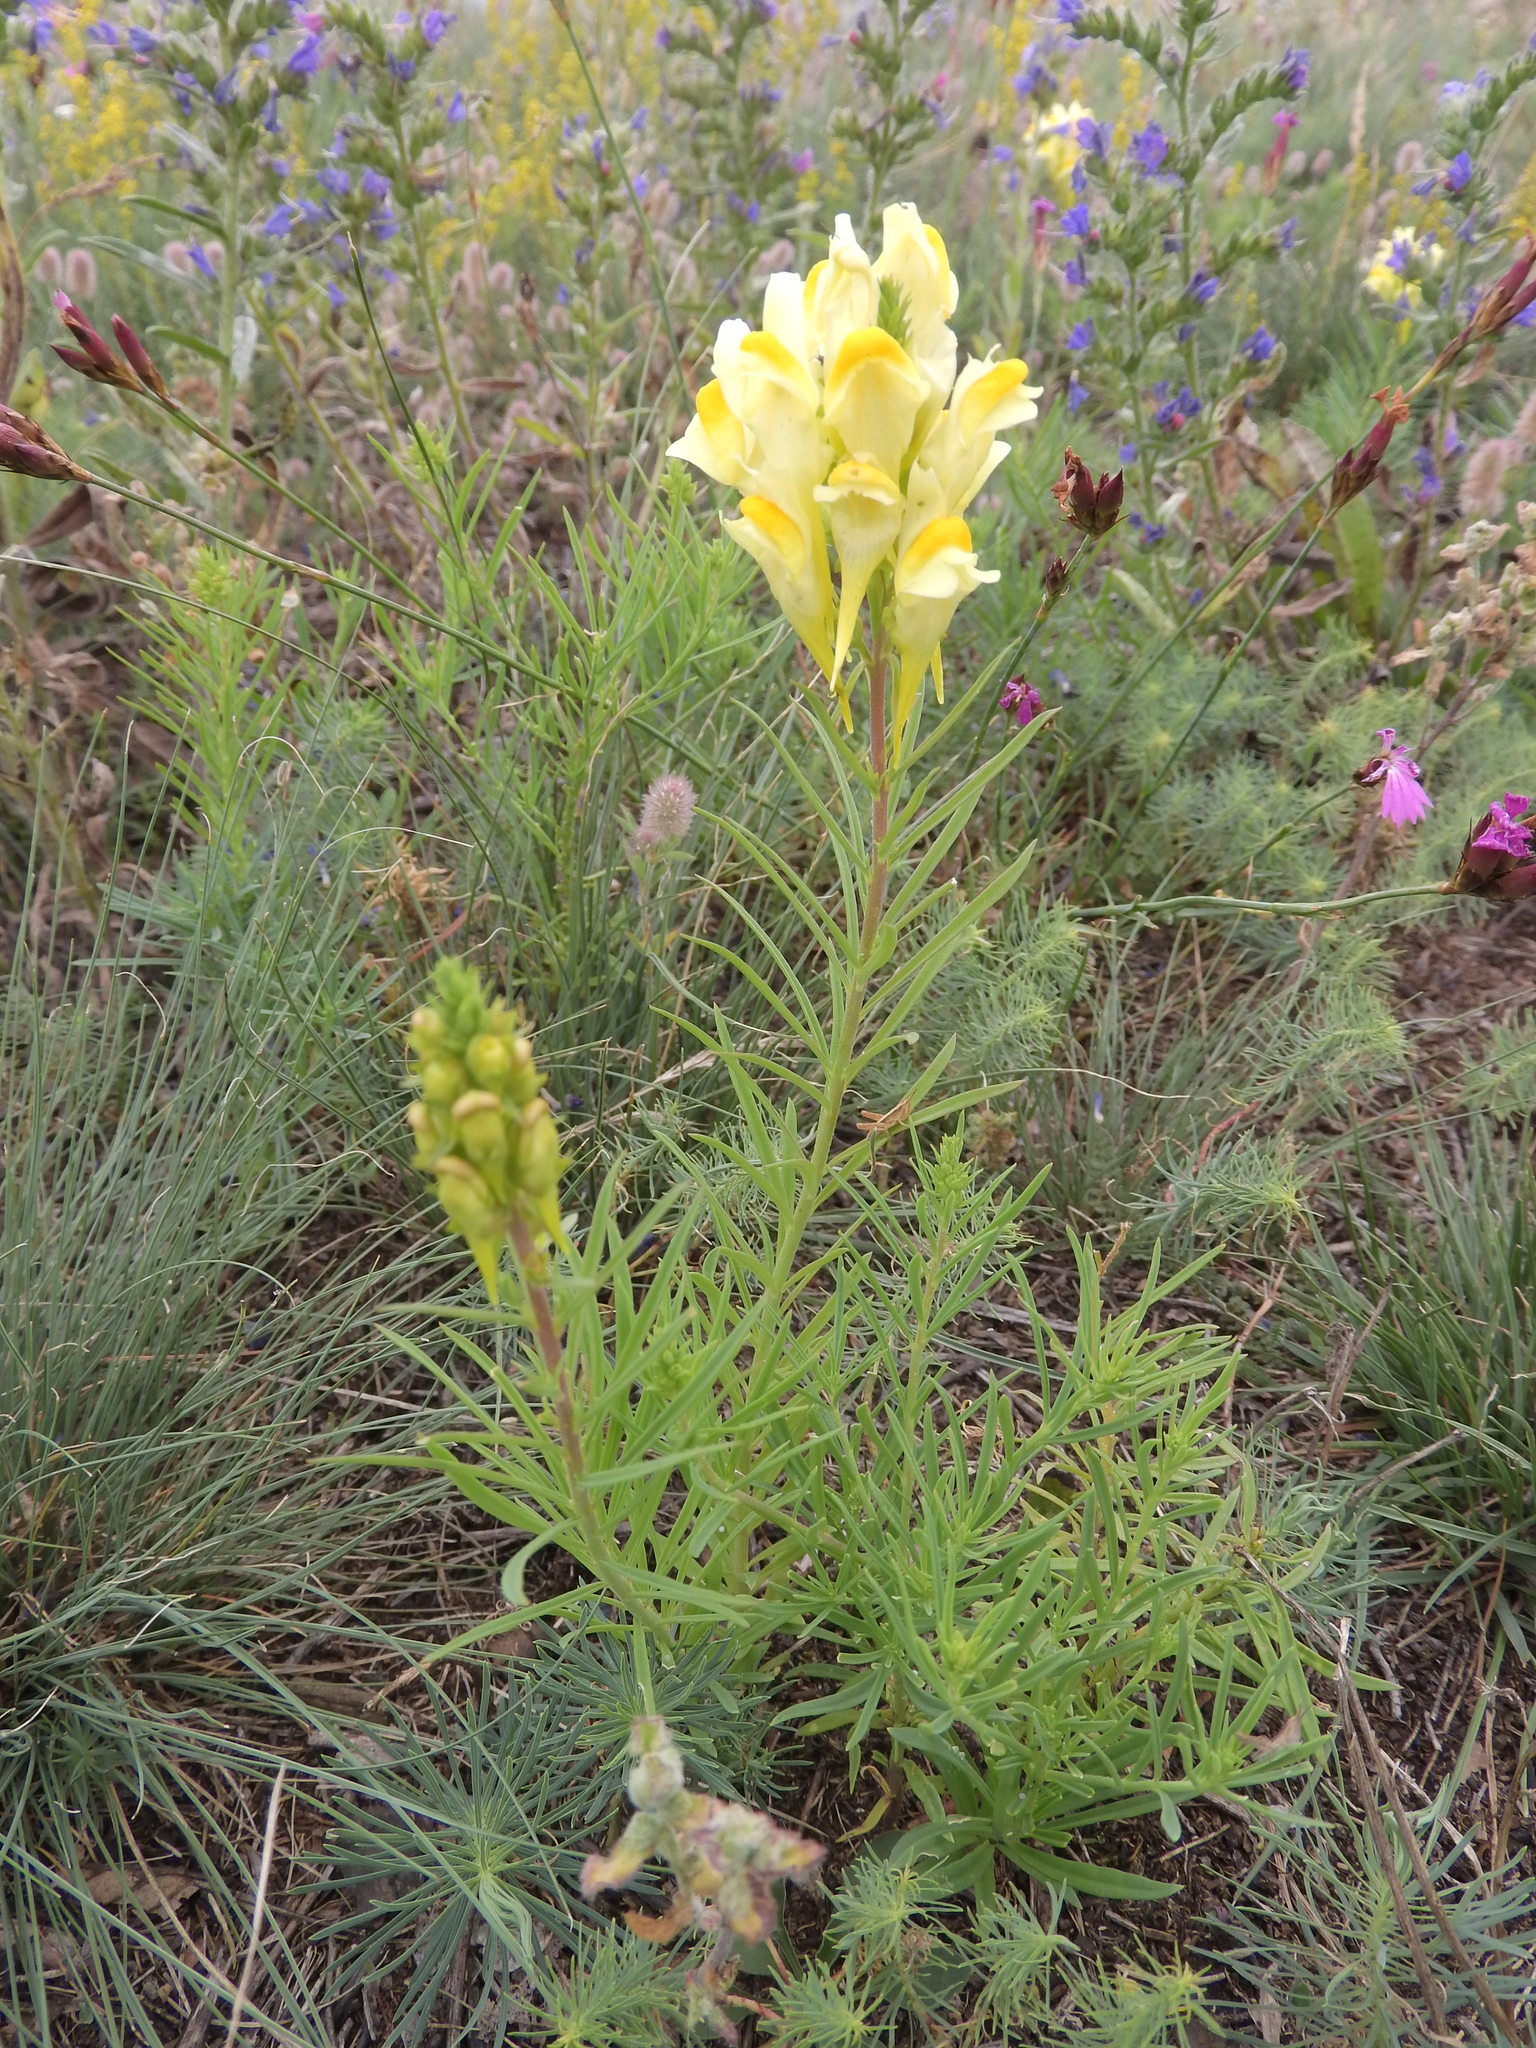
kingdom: Plantae
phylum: Tracheophyta
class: Magnoliopsida
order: Lamiales
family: Plantaginaceae
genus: Linaria
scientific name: Linaria vulgaris
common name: Butter and eggs
